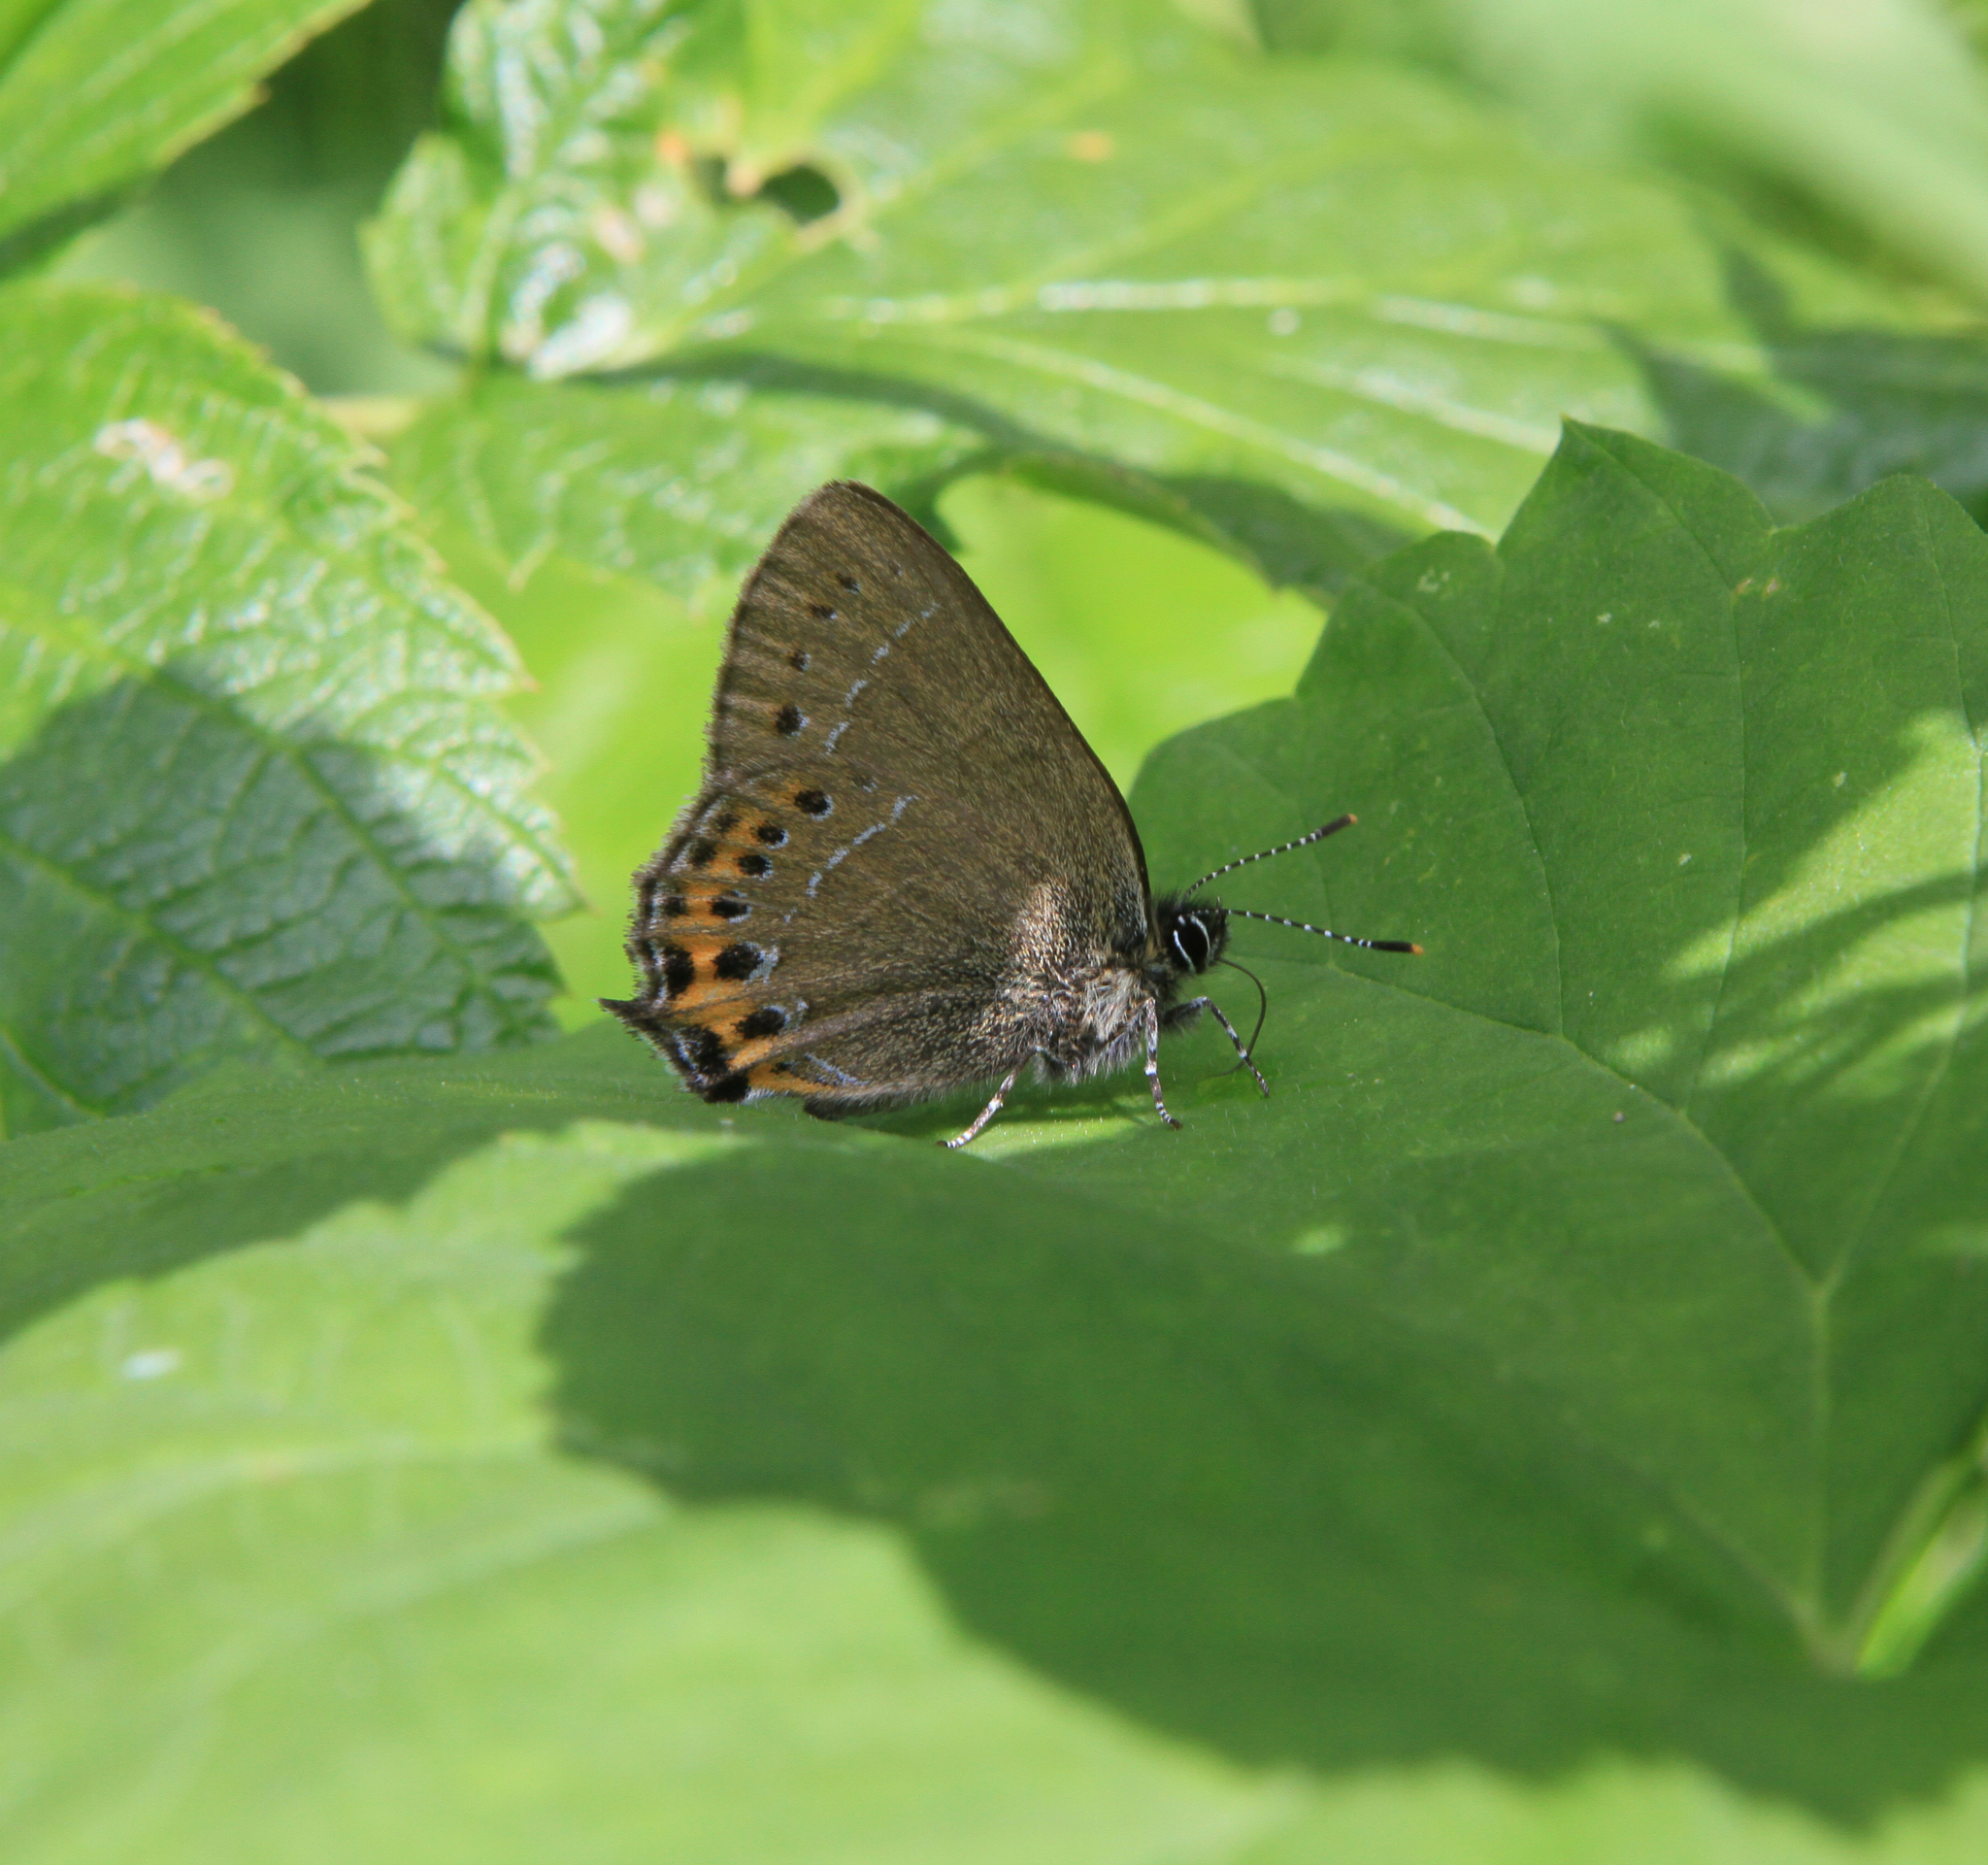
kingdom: Animalia
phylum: Arthropoda
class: Insecta
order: Lepidoptera
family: Lycaenidae
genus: Fixsenia
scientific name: Fixsenia pruni
